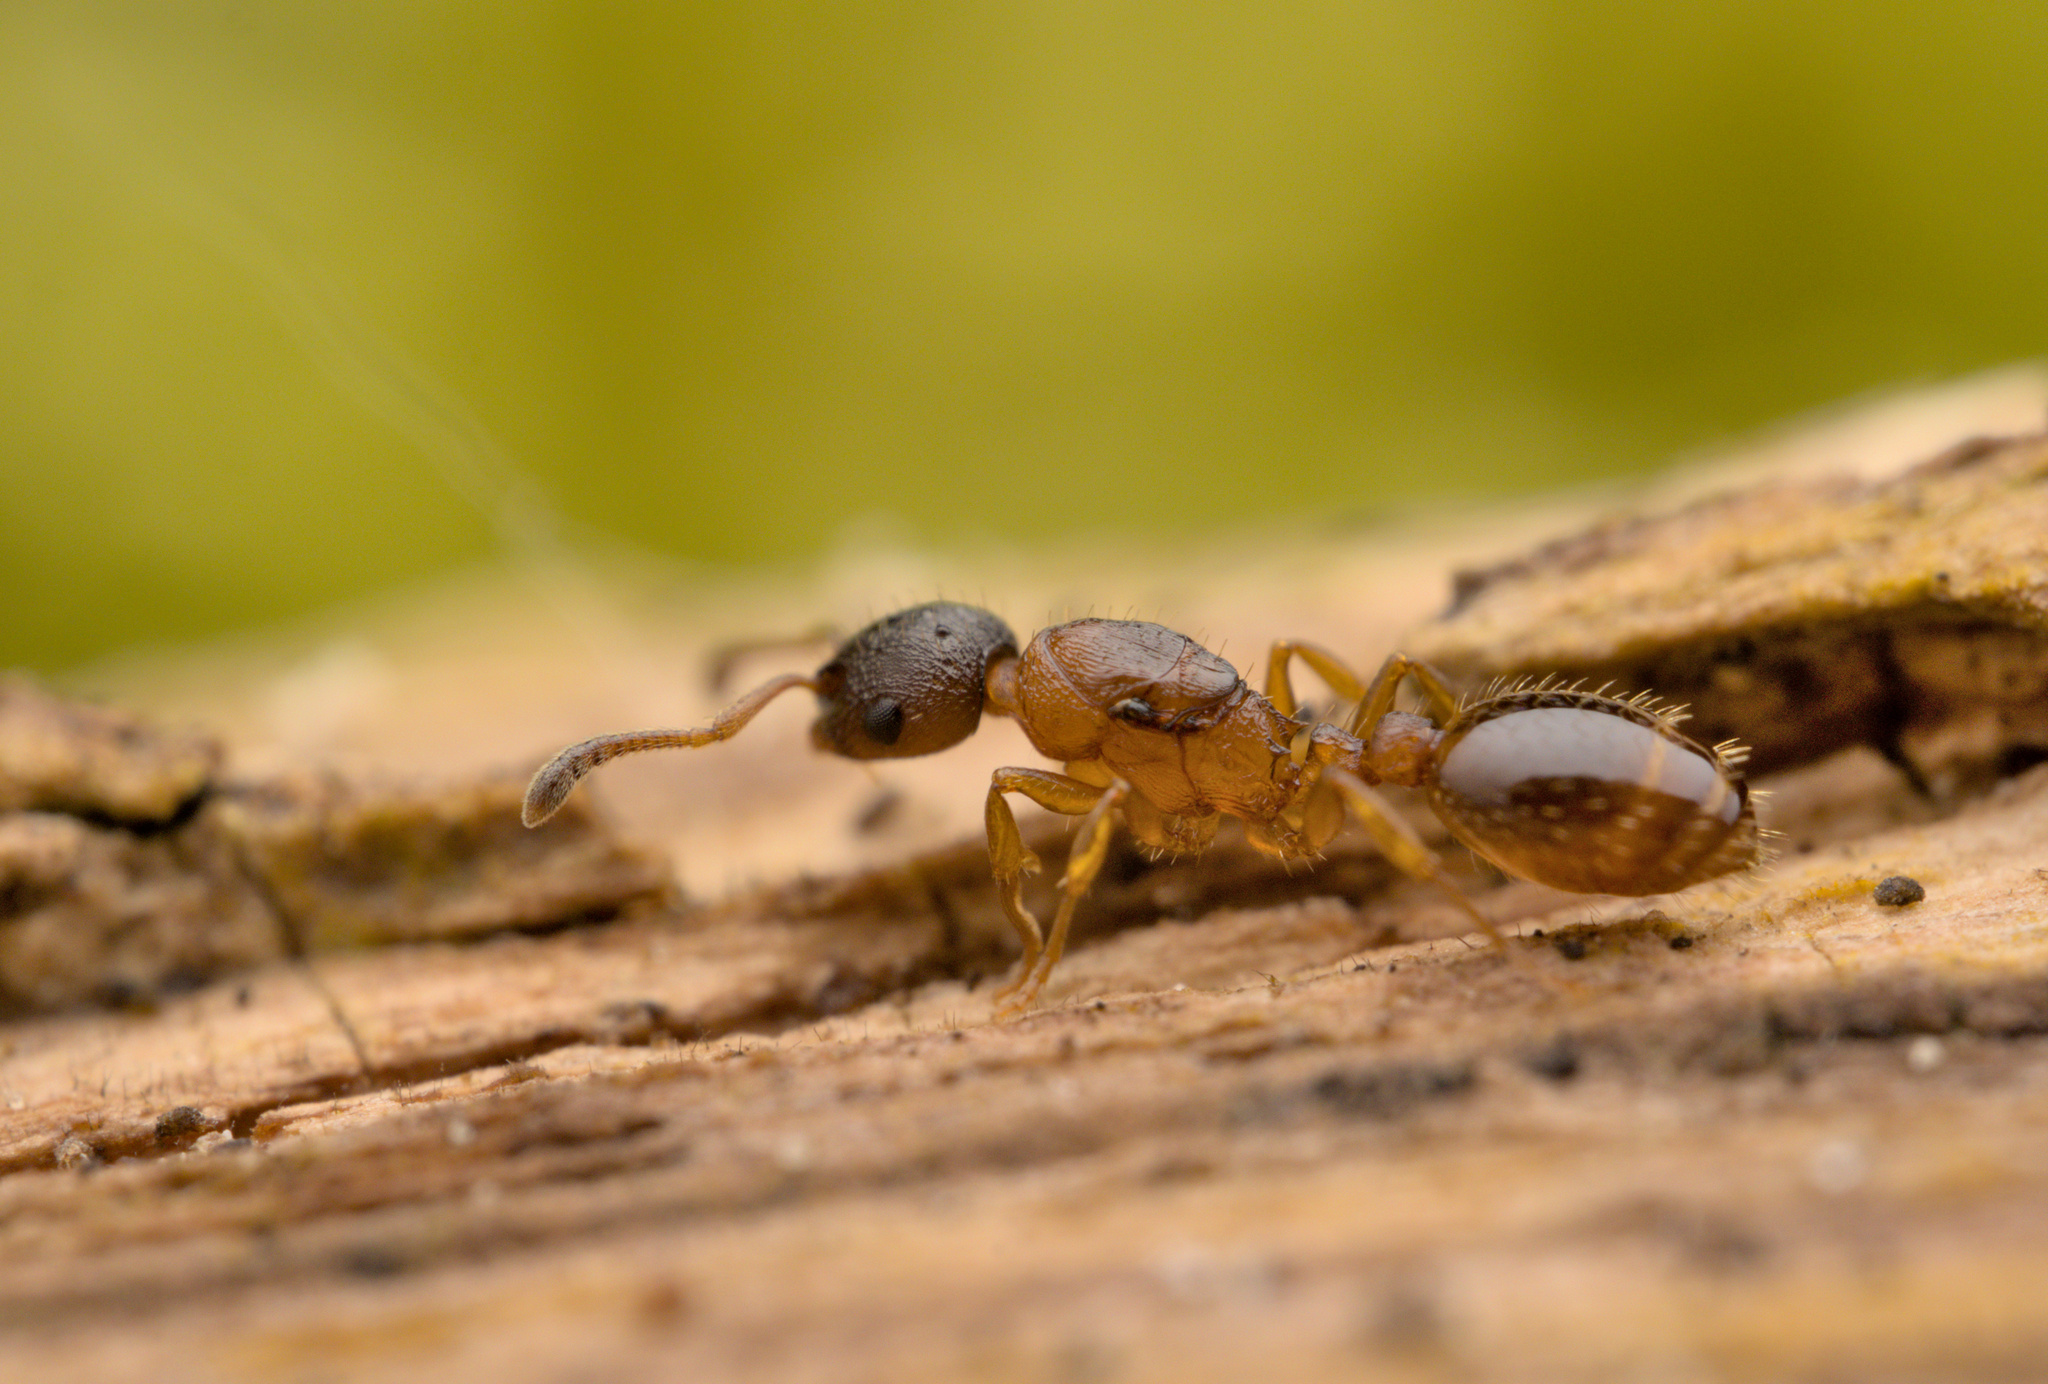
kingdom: Animalia
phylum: Arthropoda
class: Insecta
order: Hymenoptera
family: Formicidae
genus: Leptothorax
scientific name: Leptothorax gredleri
